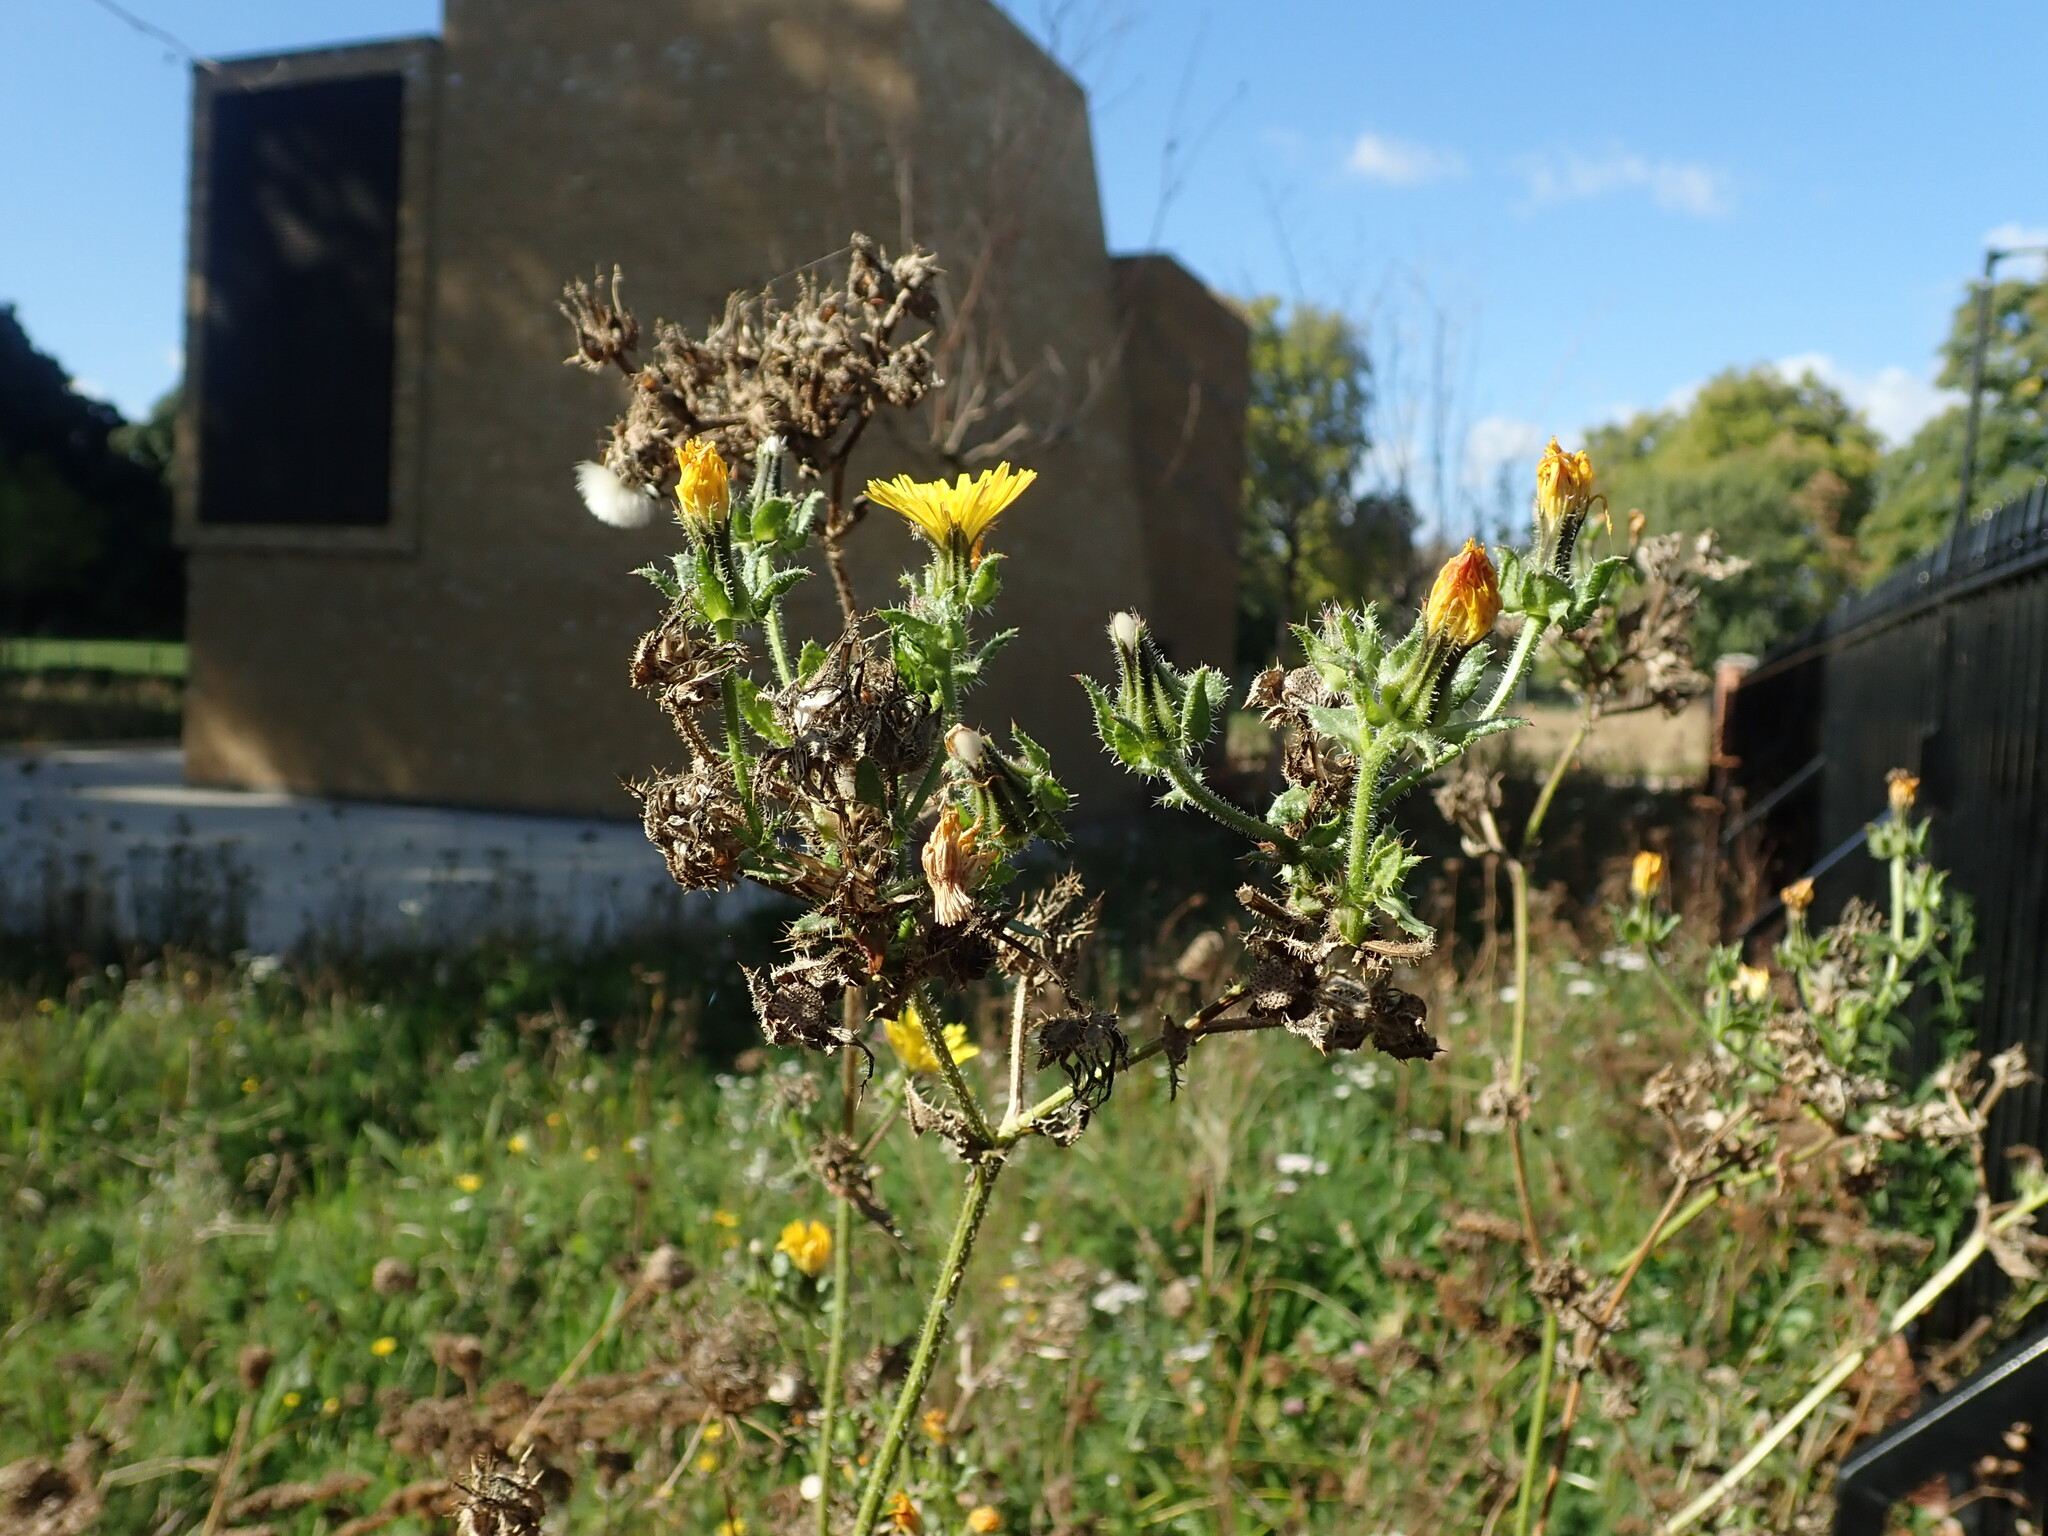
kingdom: Plantae
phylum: Tracheophyta
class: Magnoliopsida
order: Asterales
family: Asteraceae
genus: Helminthotheca
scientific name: Helminthotheca echioides
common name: Ox-tongue
